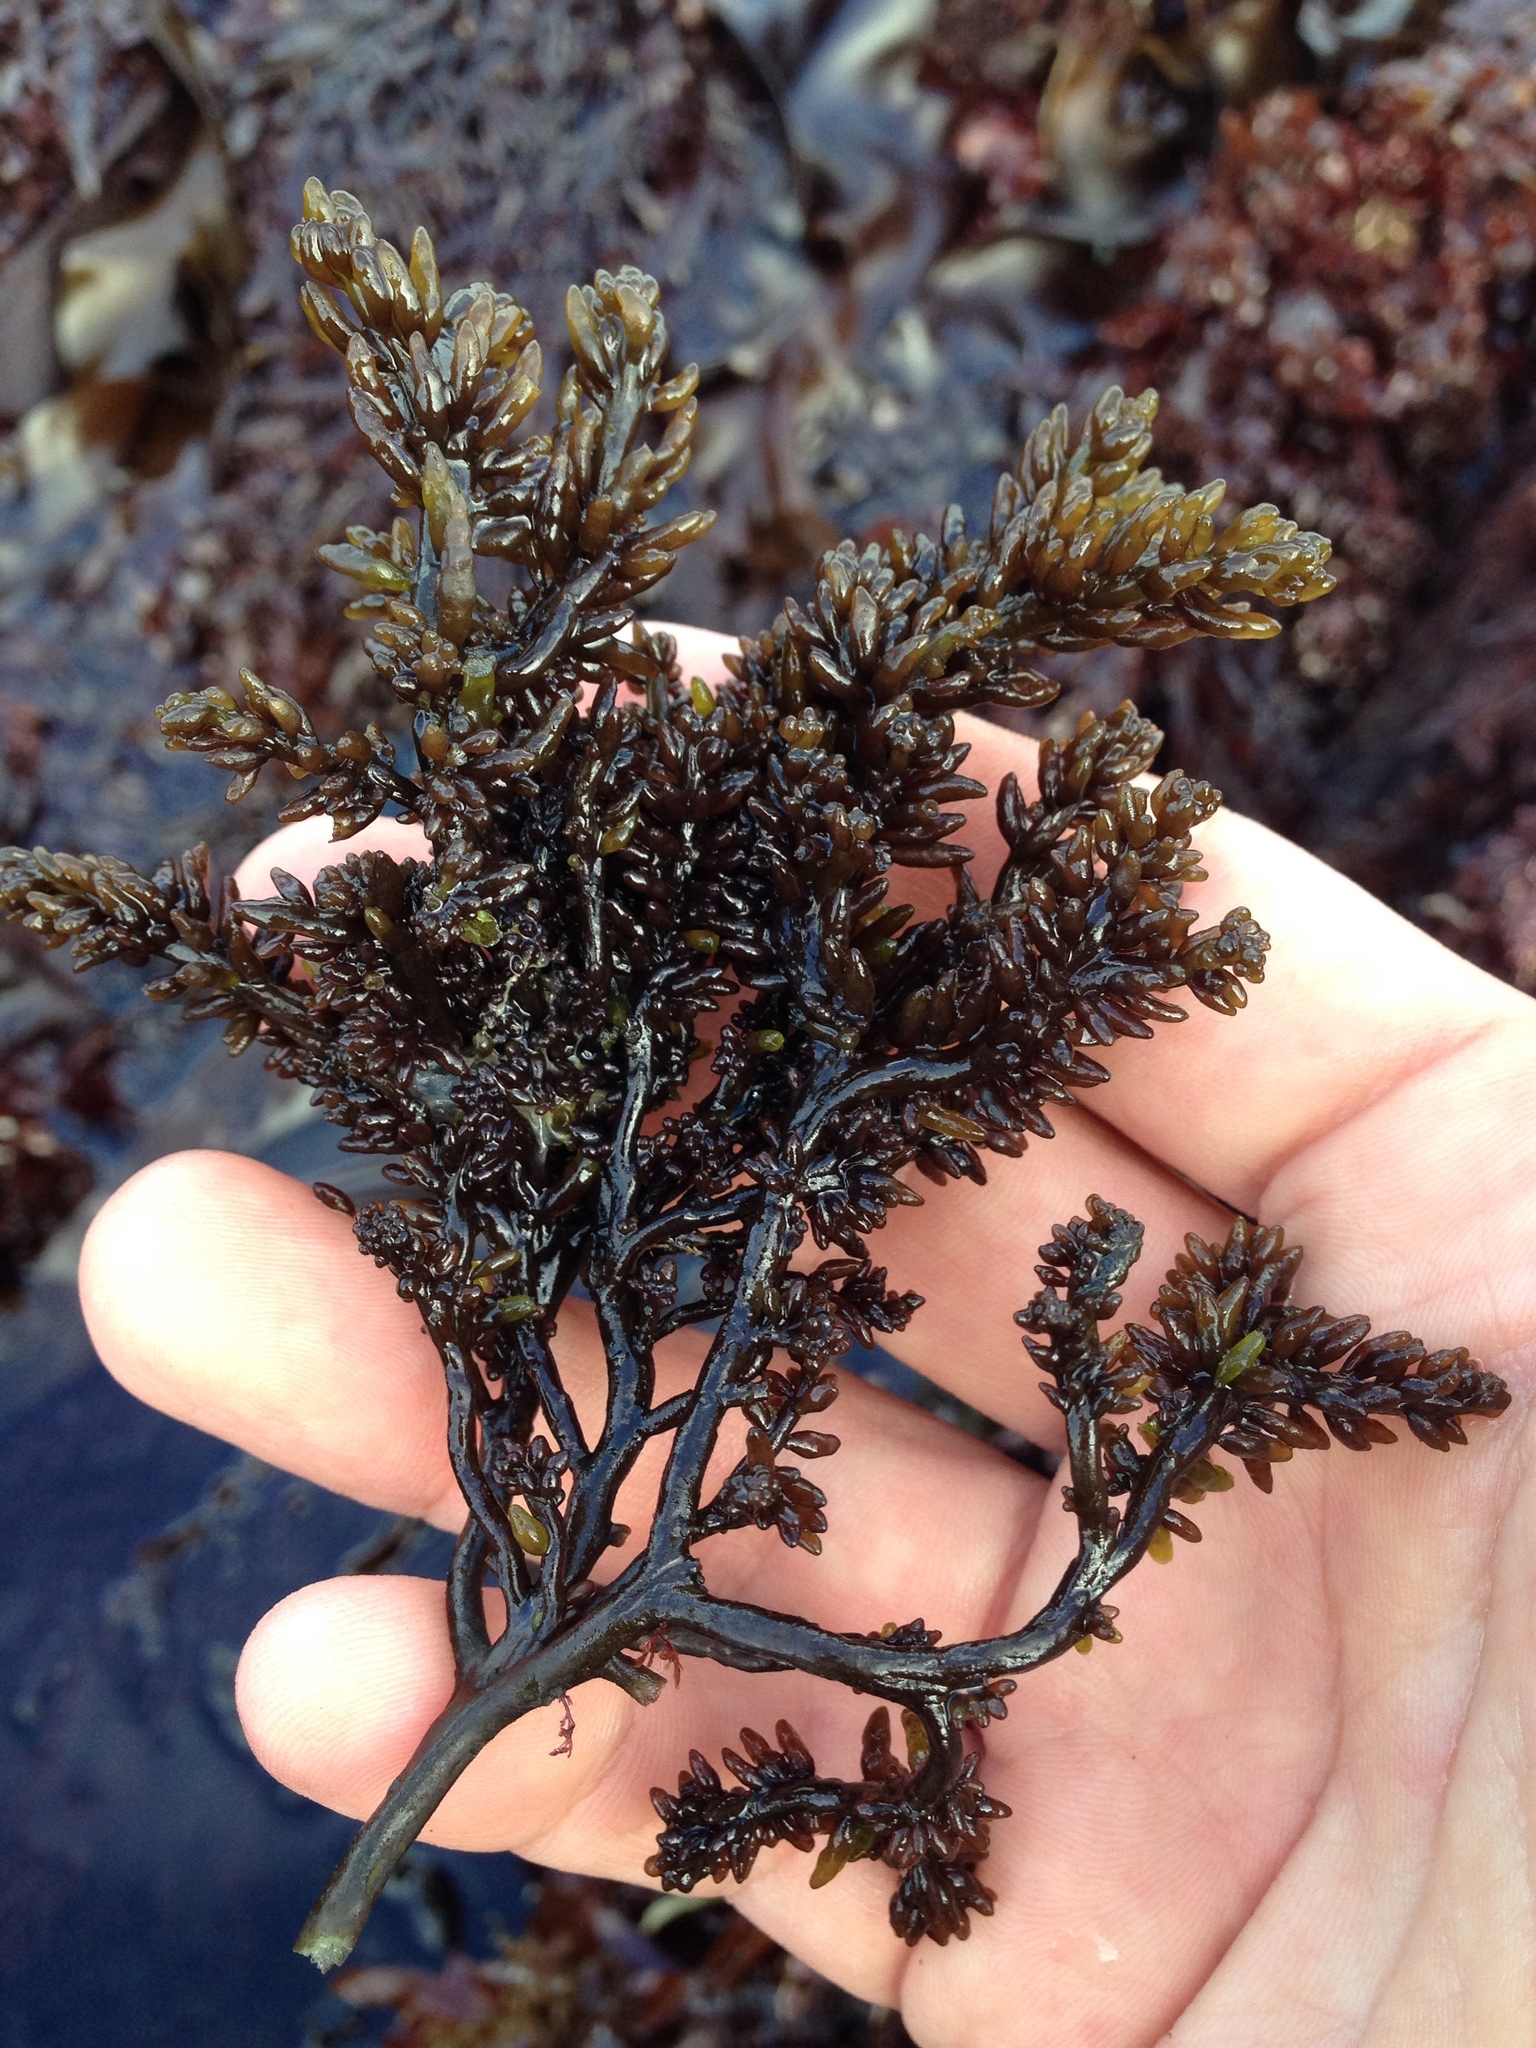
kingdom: Plantae
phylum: Rhodophyta
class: Florideophyceae
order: Ceramiales
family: Rhodomelaceae
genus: Neorhodomela
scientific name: Neorhodomela larix
